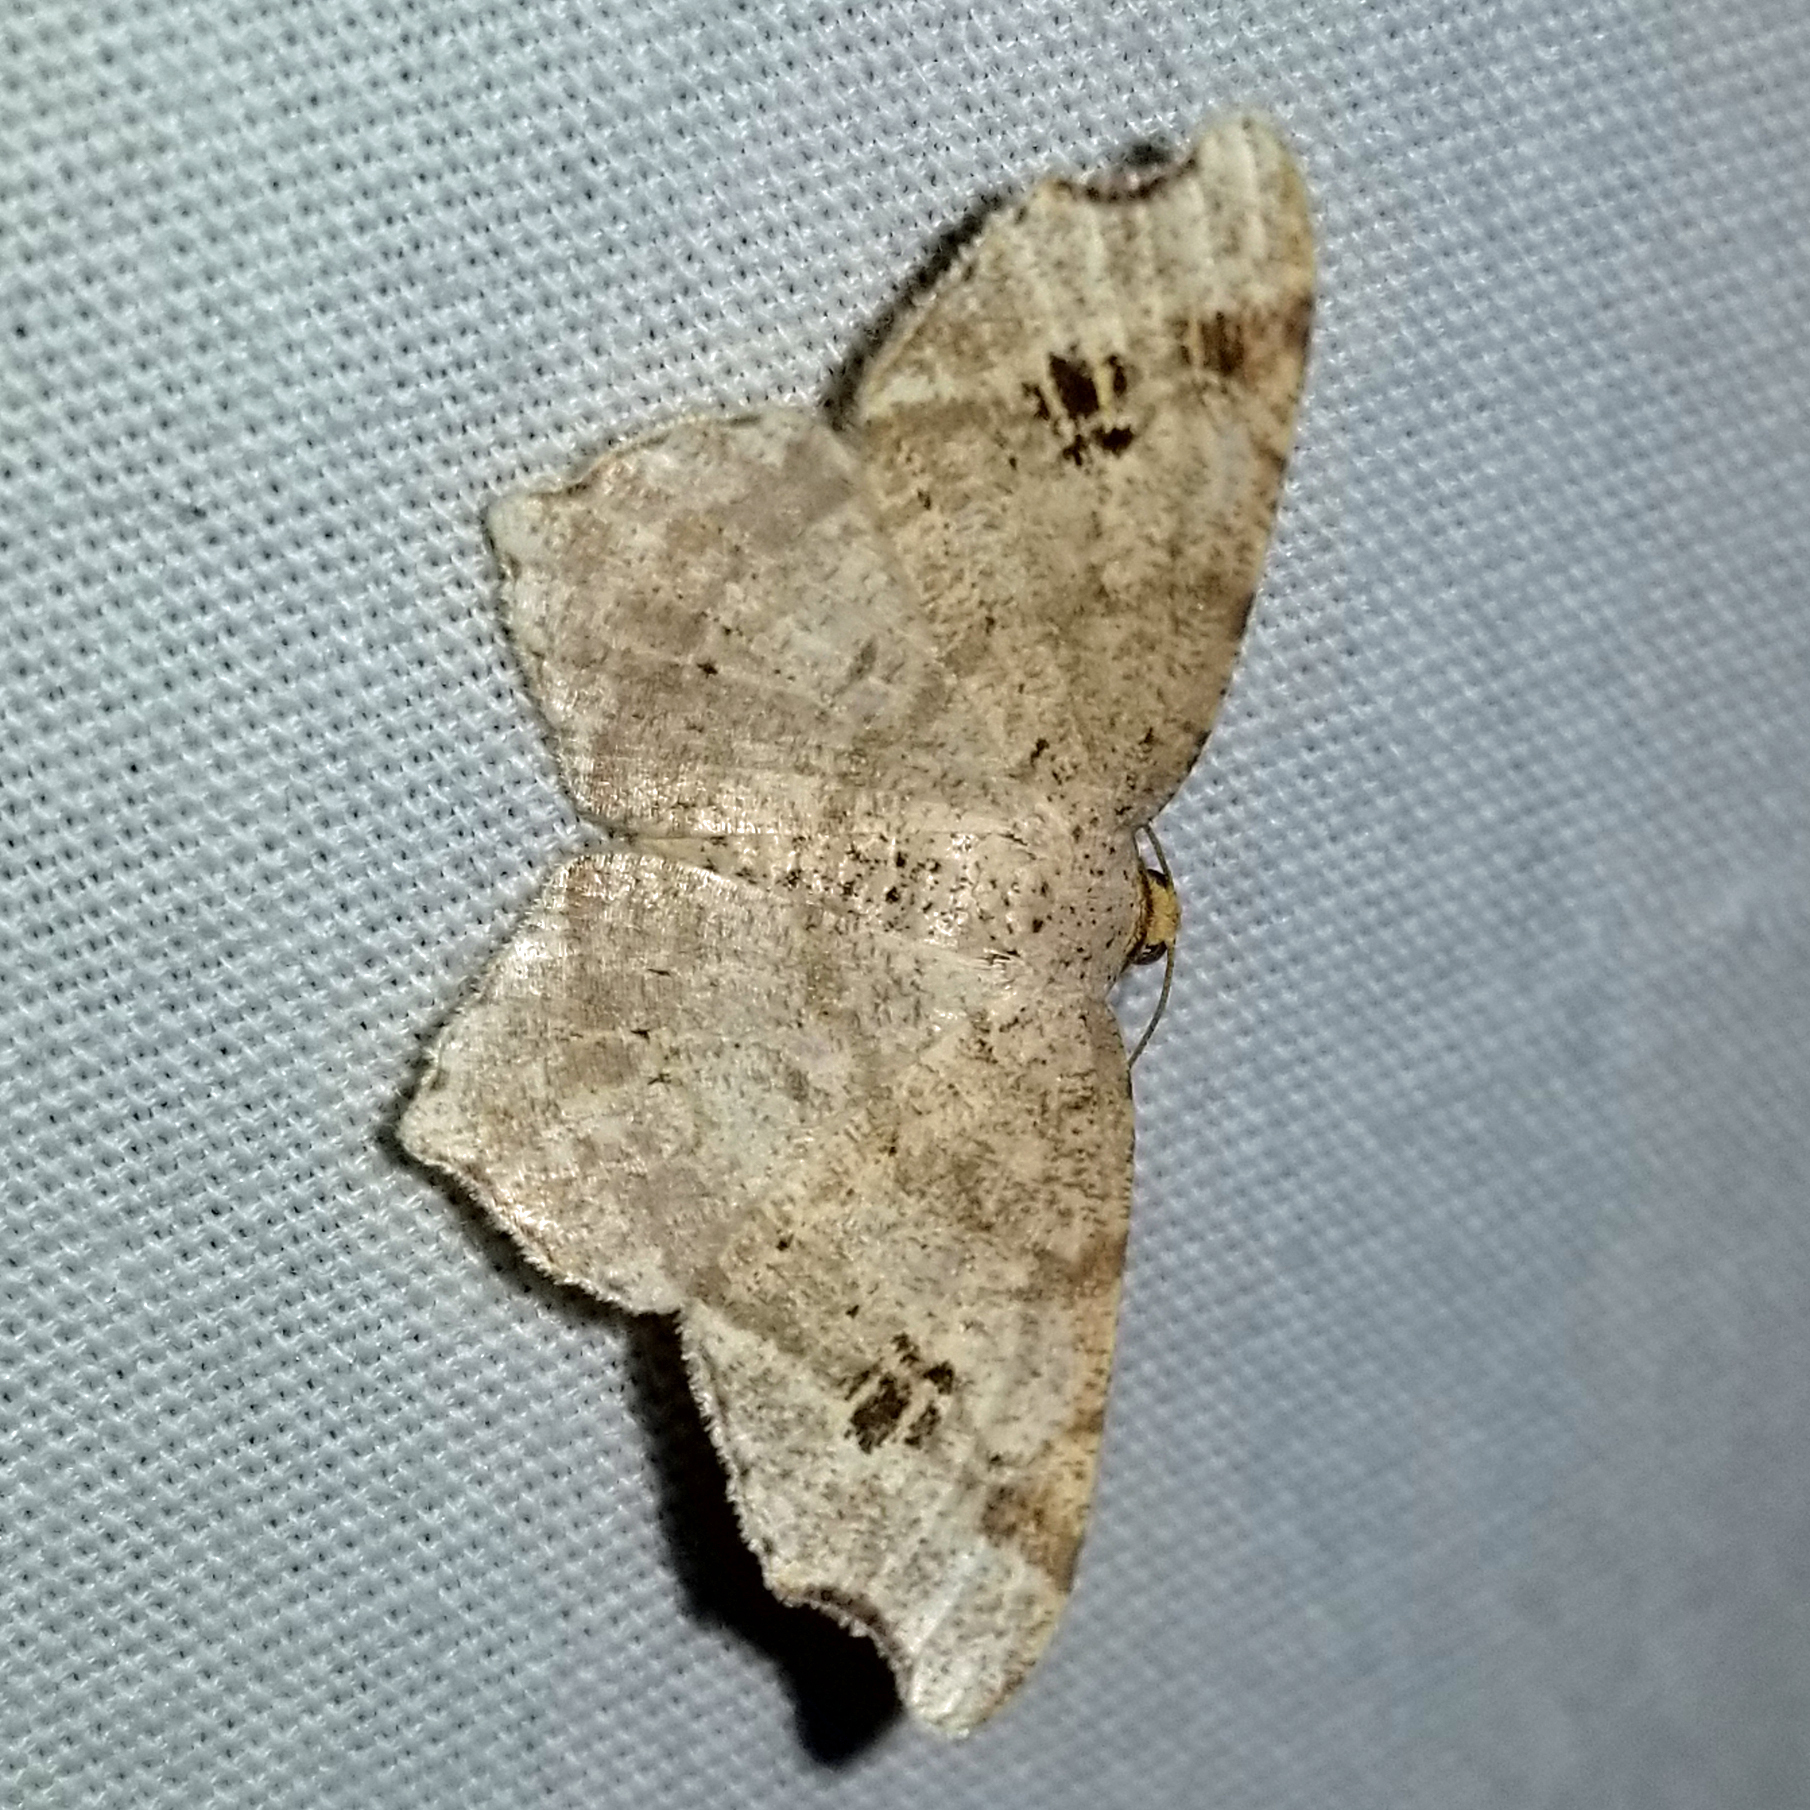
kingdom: Animalia
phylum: Arthropoda
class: Insecta
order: Lepidoptera
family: Geometridae
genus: Macaria
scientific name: Macaria aemulataria
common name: Common angle
